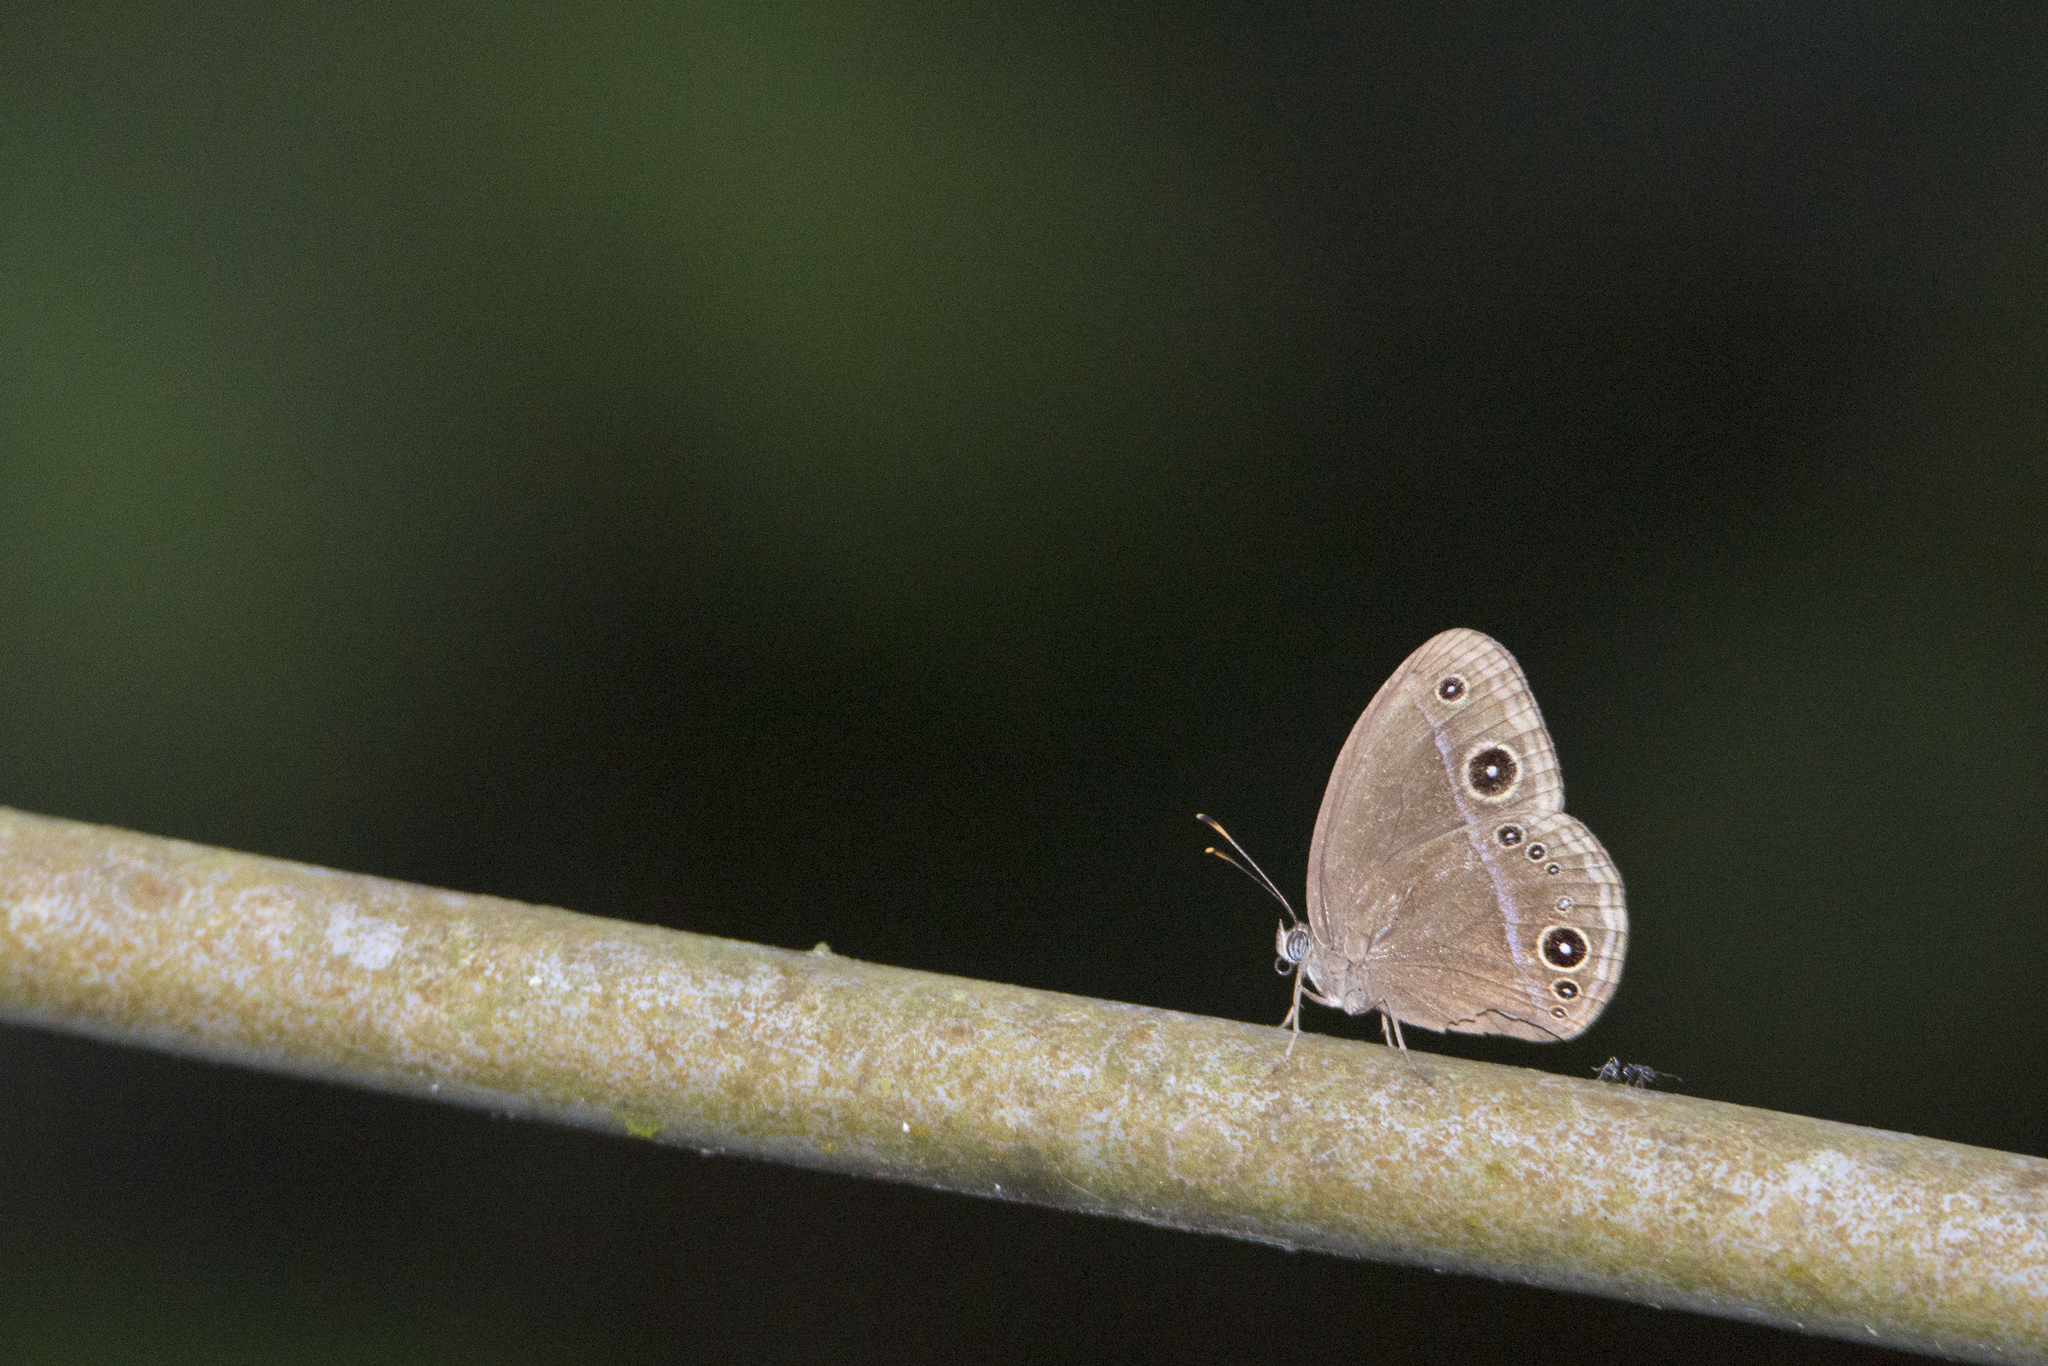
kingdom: Animalia
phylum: Arthropoda
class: Insecta
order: Lepidoptera
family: Nymphalidae
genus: Mycalesis
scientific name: Mycalesis francisca
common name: Lilacine bushbrown
